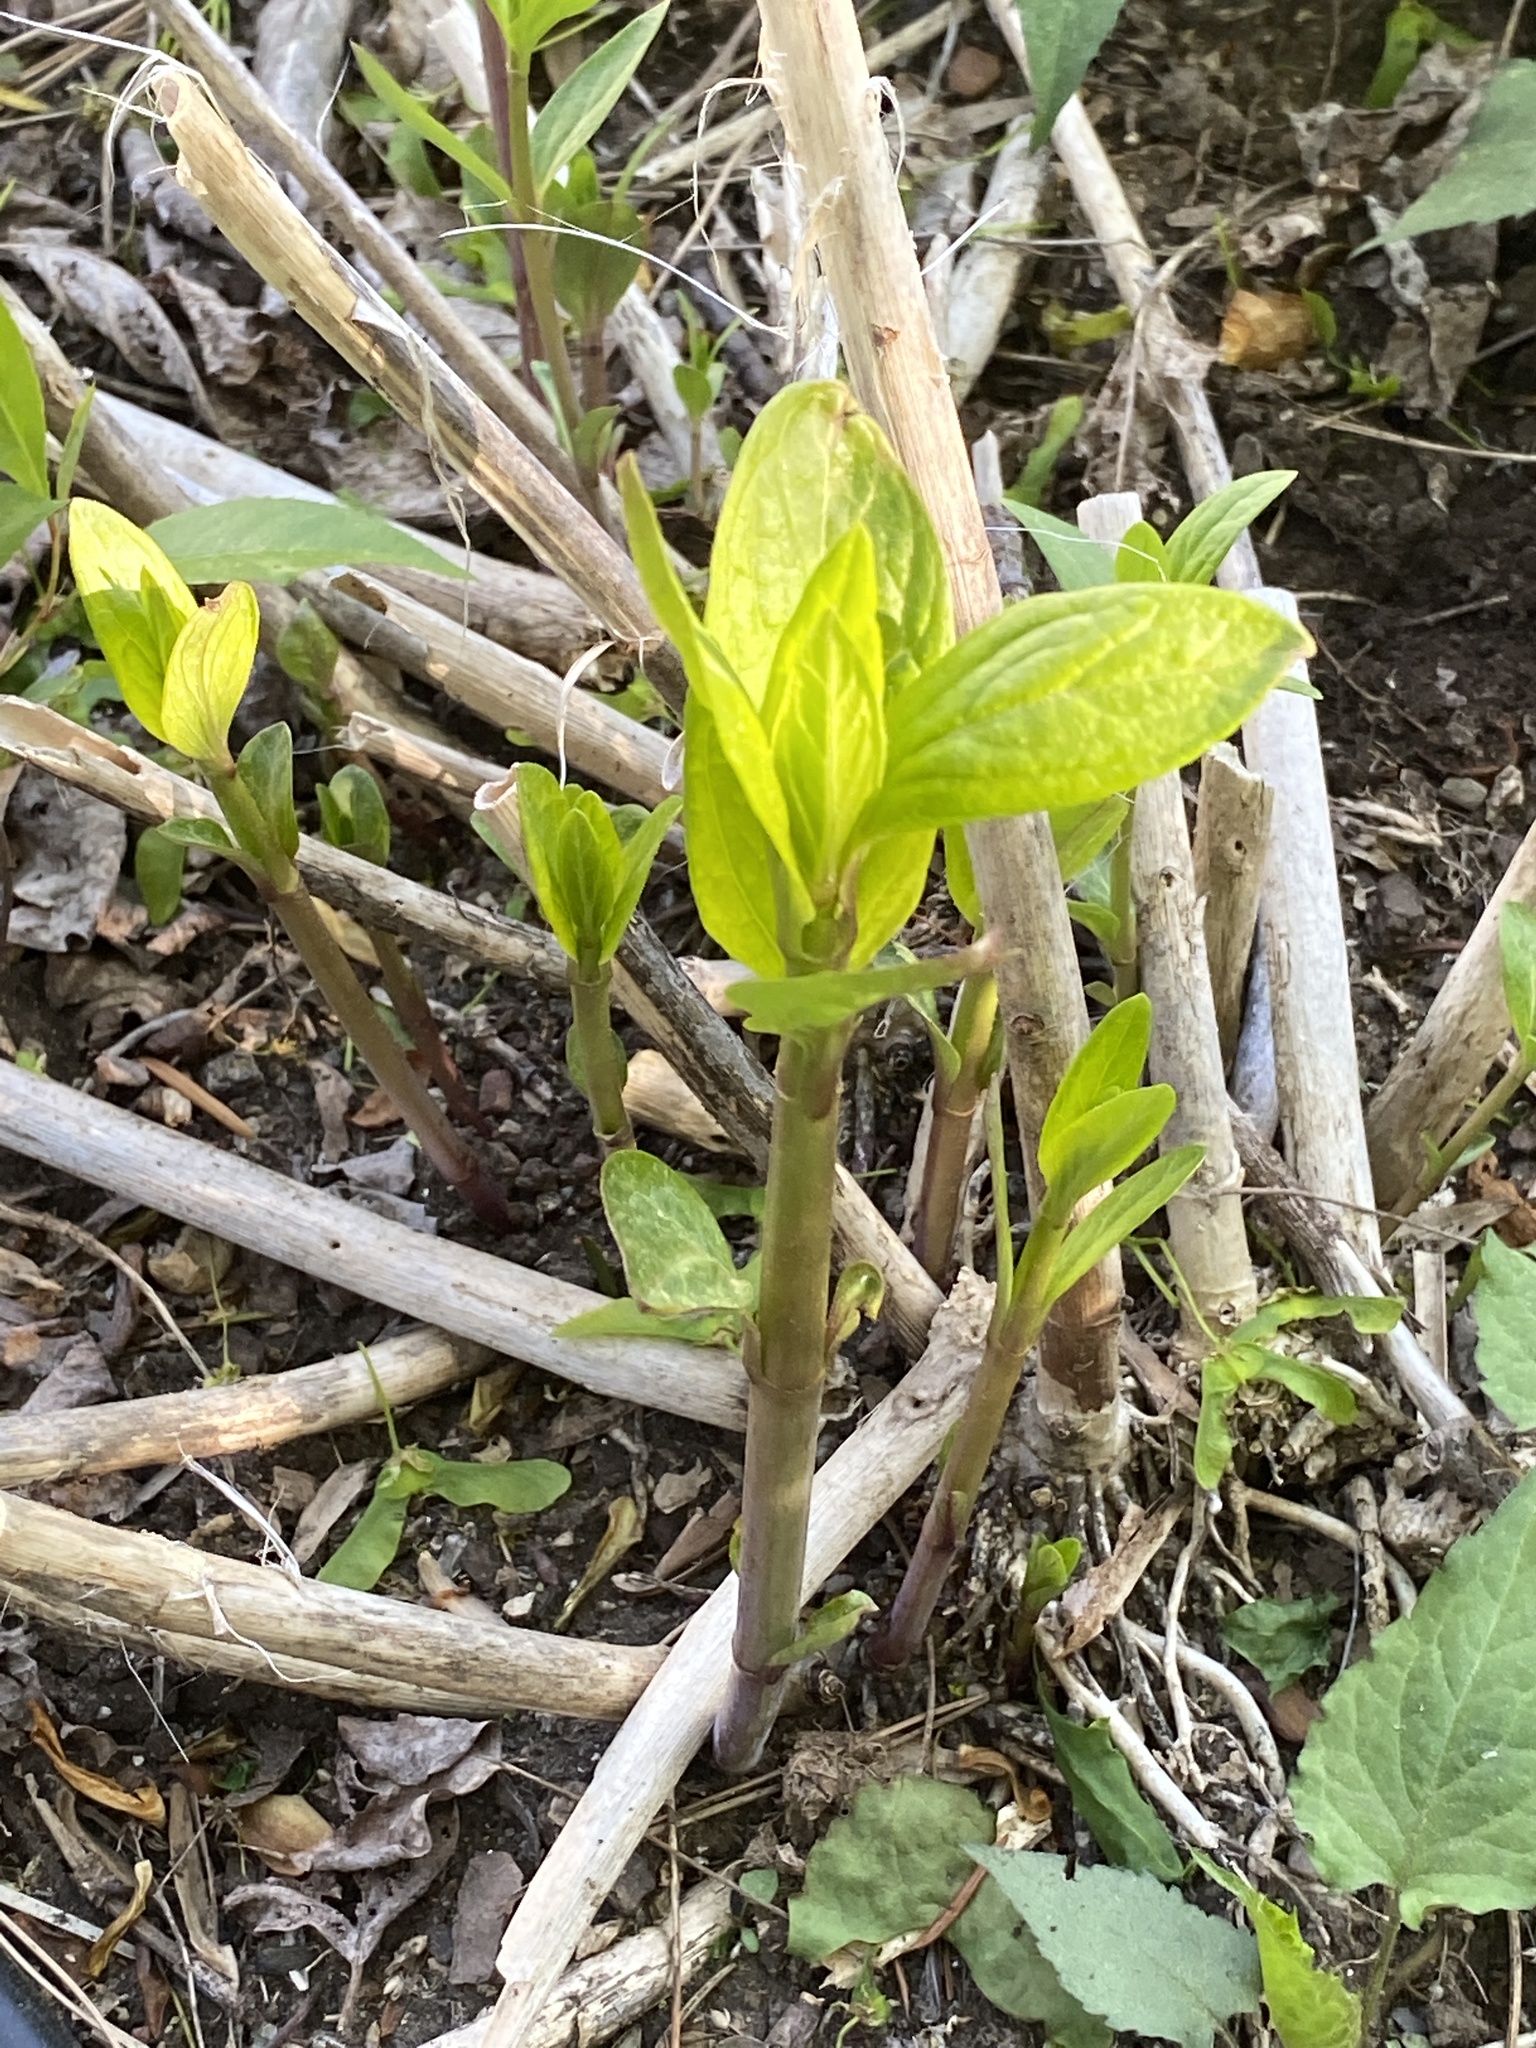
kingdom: Plantae
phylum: Tracheophyta
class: Magnoliopsida
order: Caryophyllales
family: Phytolaccaceae
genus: Phytolacca
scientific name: Phytolacca americana
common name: American pokeweed
